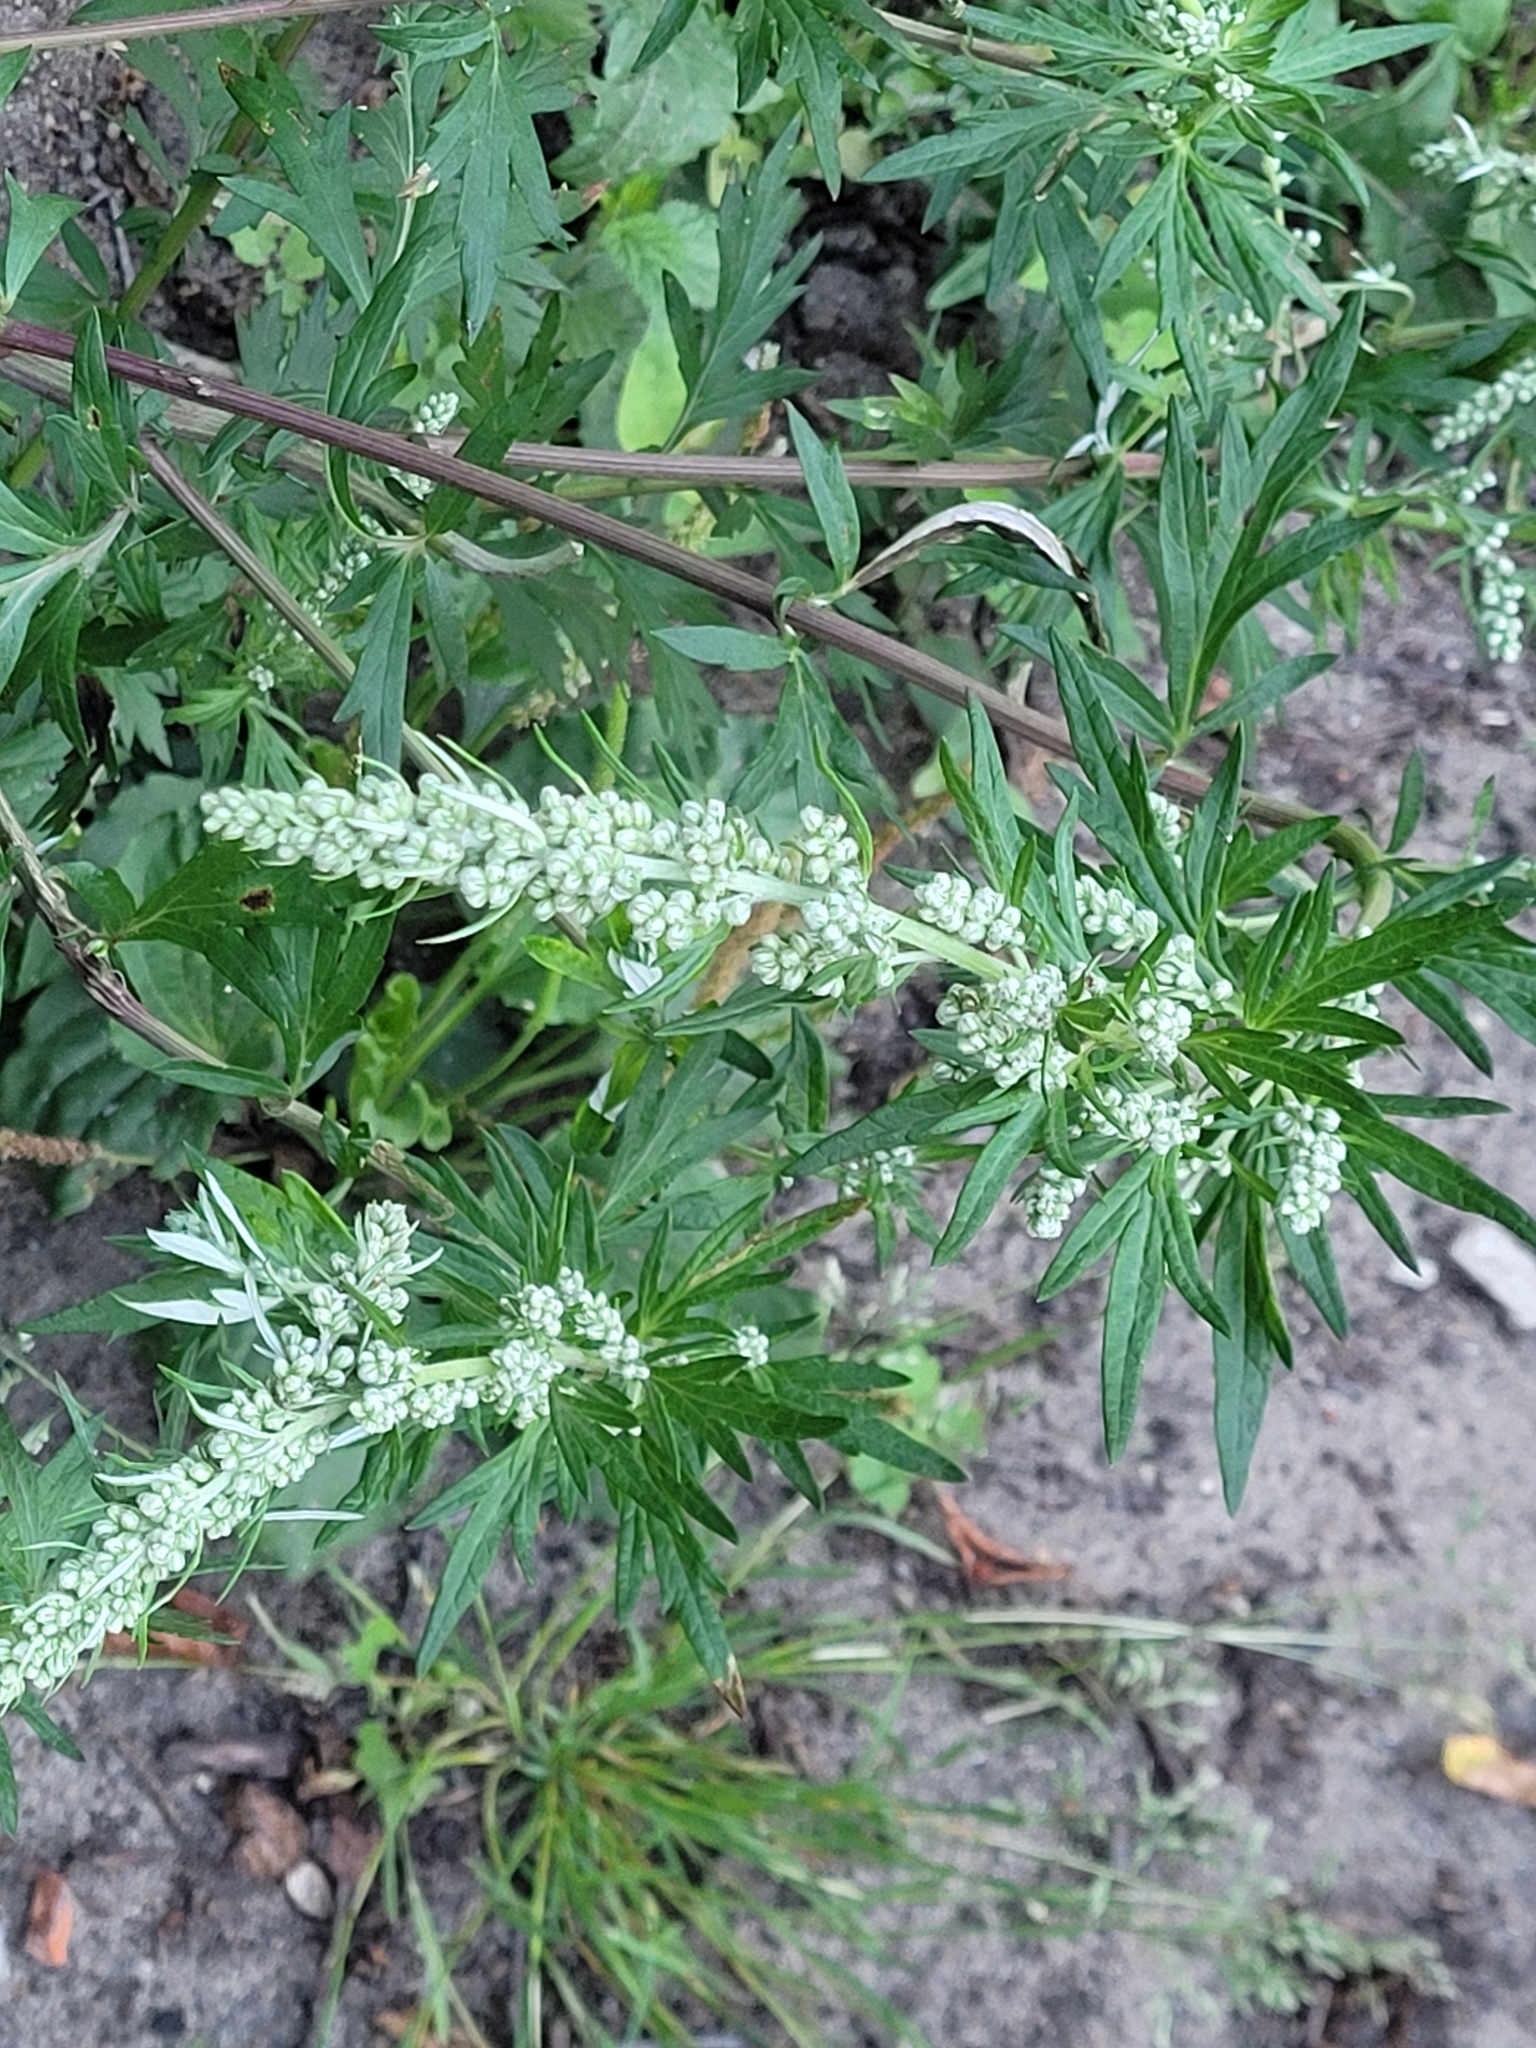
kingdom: Plantae
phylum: Tracheophyta
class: Magnoliopsida
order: Asterales
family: Asteraceae
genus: Artemisia
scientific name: Artemisia vulgaris
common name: Mugwort
